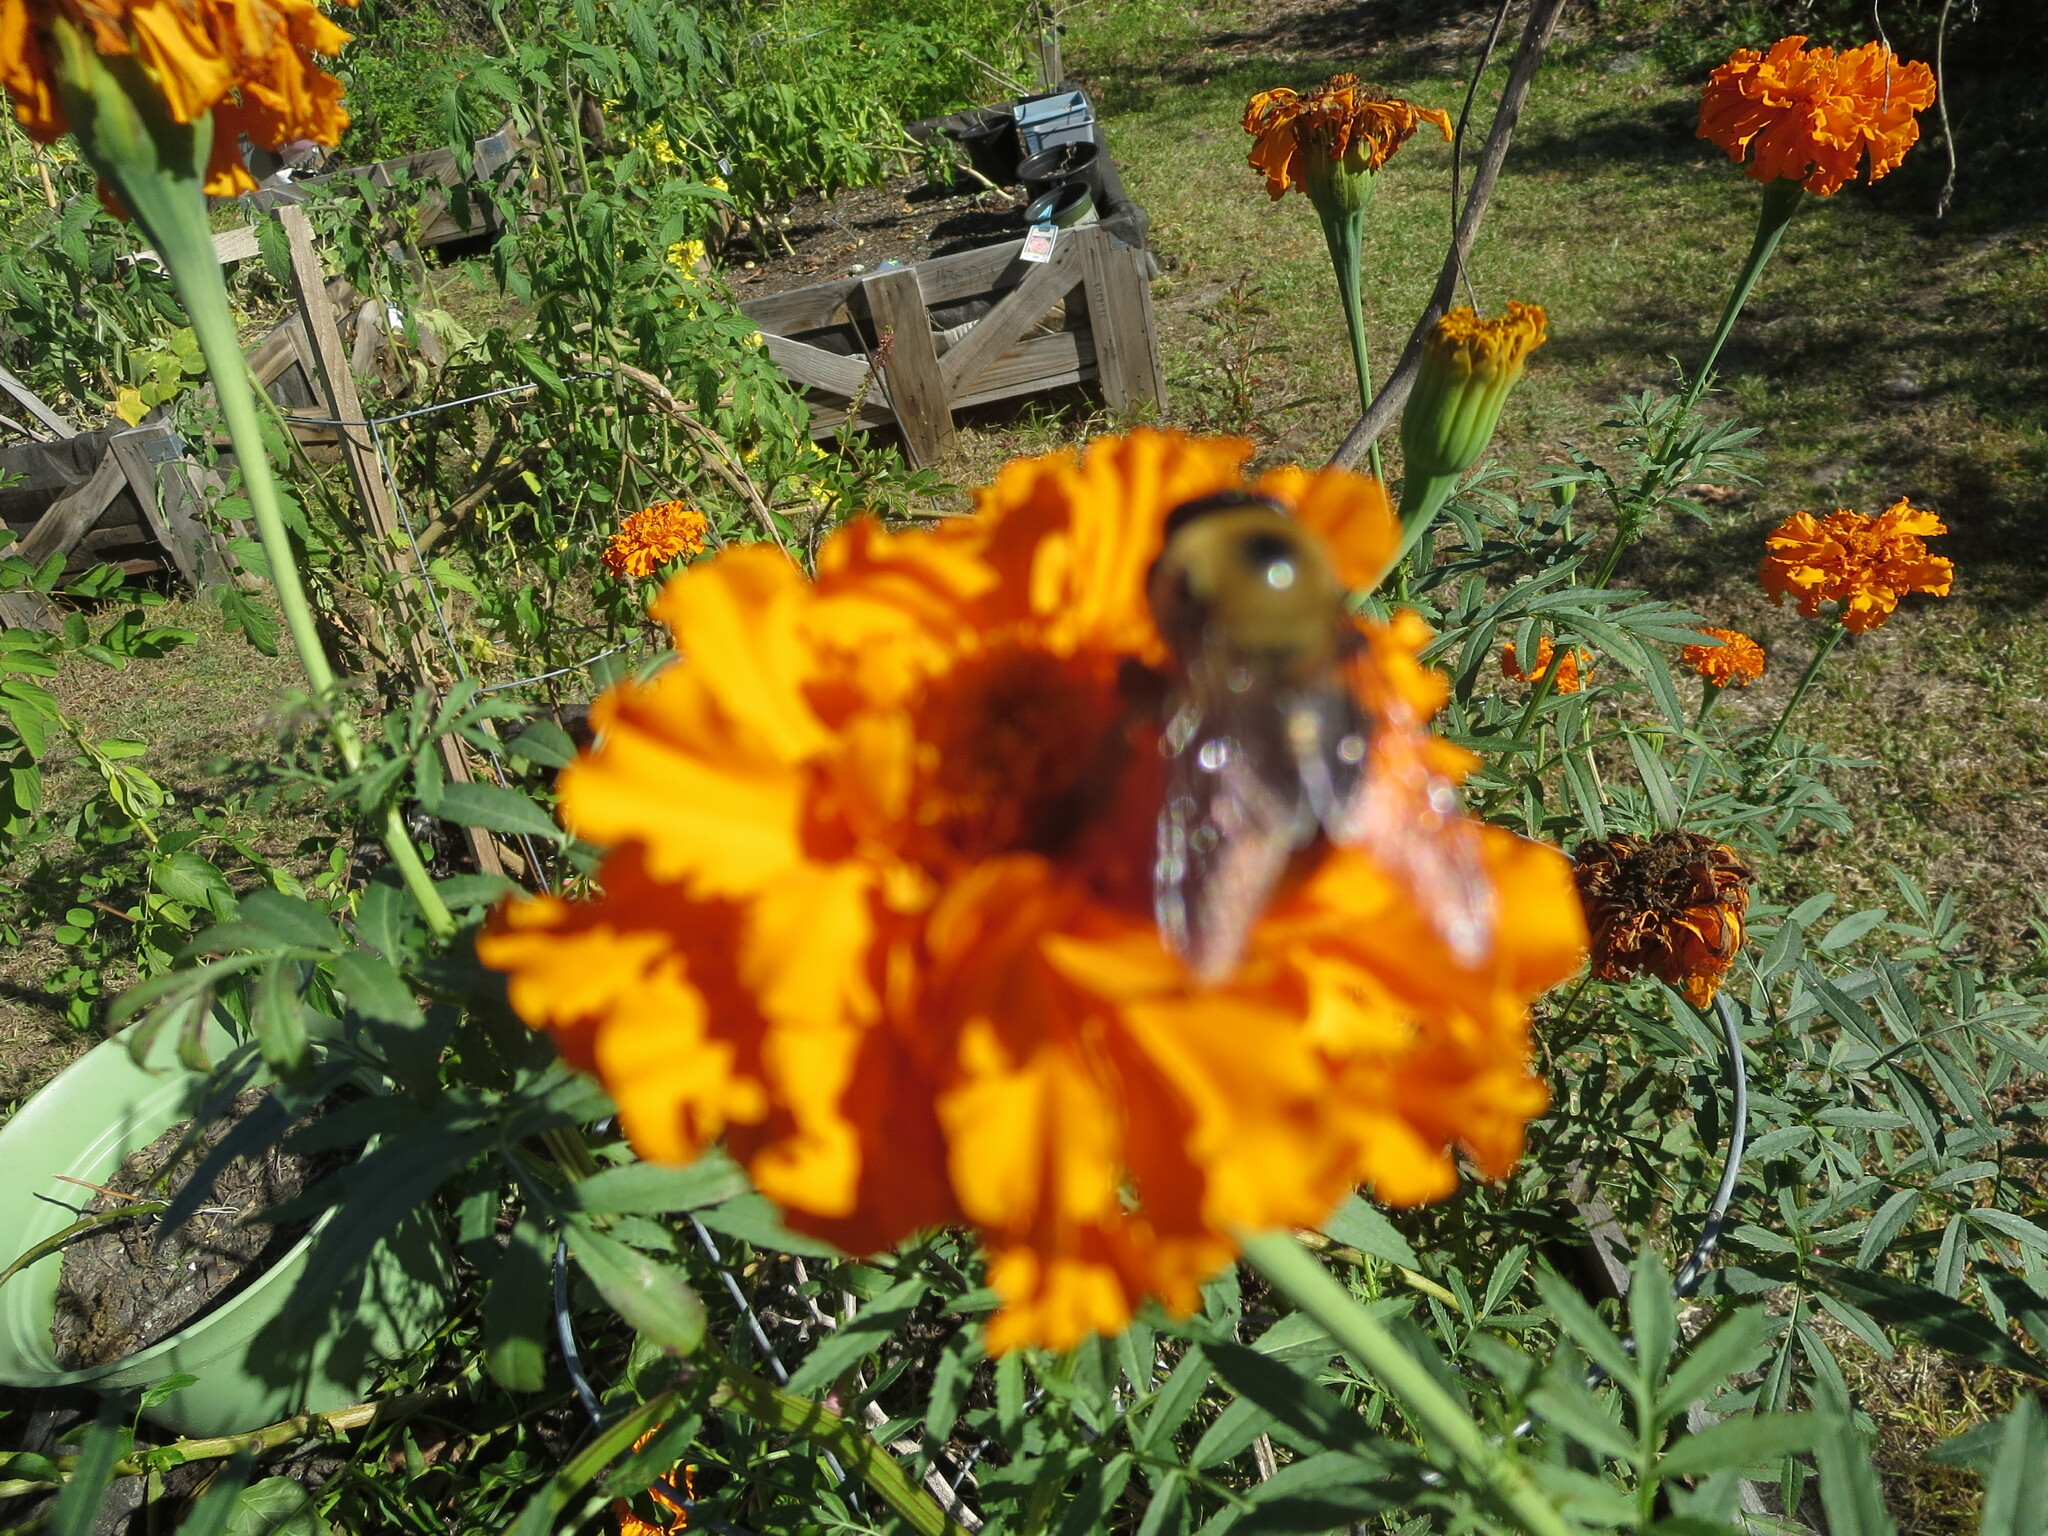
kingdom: Animalia
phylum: Arthropoda
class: Insecta
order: Hymenoptera
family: Apidae
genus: Xylocopa
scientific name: Xylocopa virginica
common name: Carpenter bee
